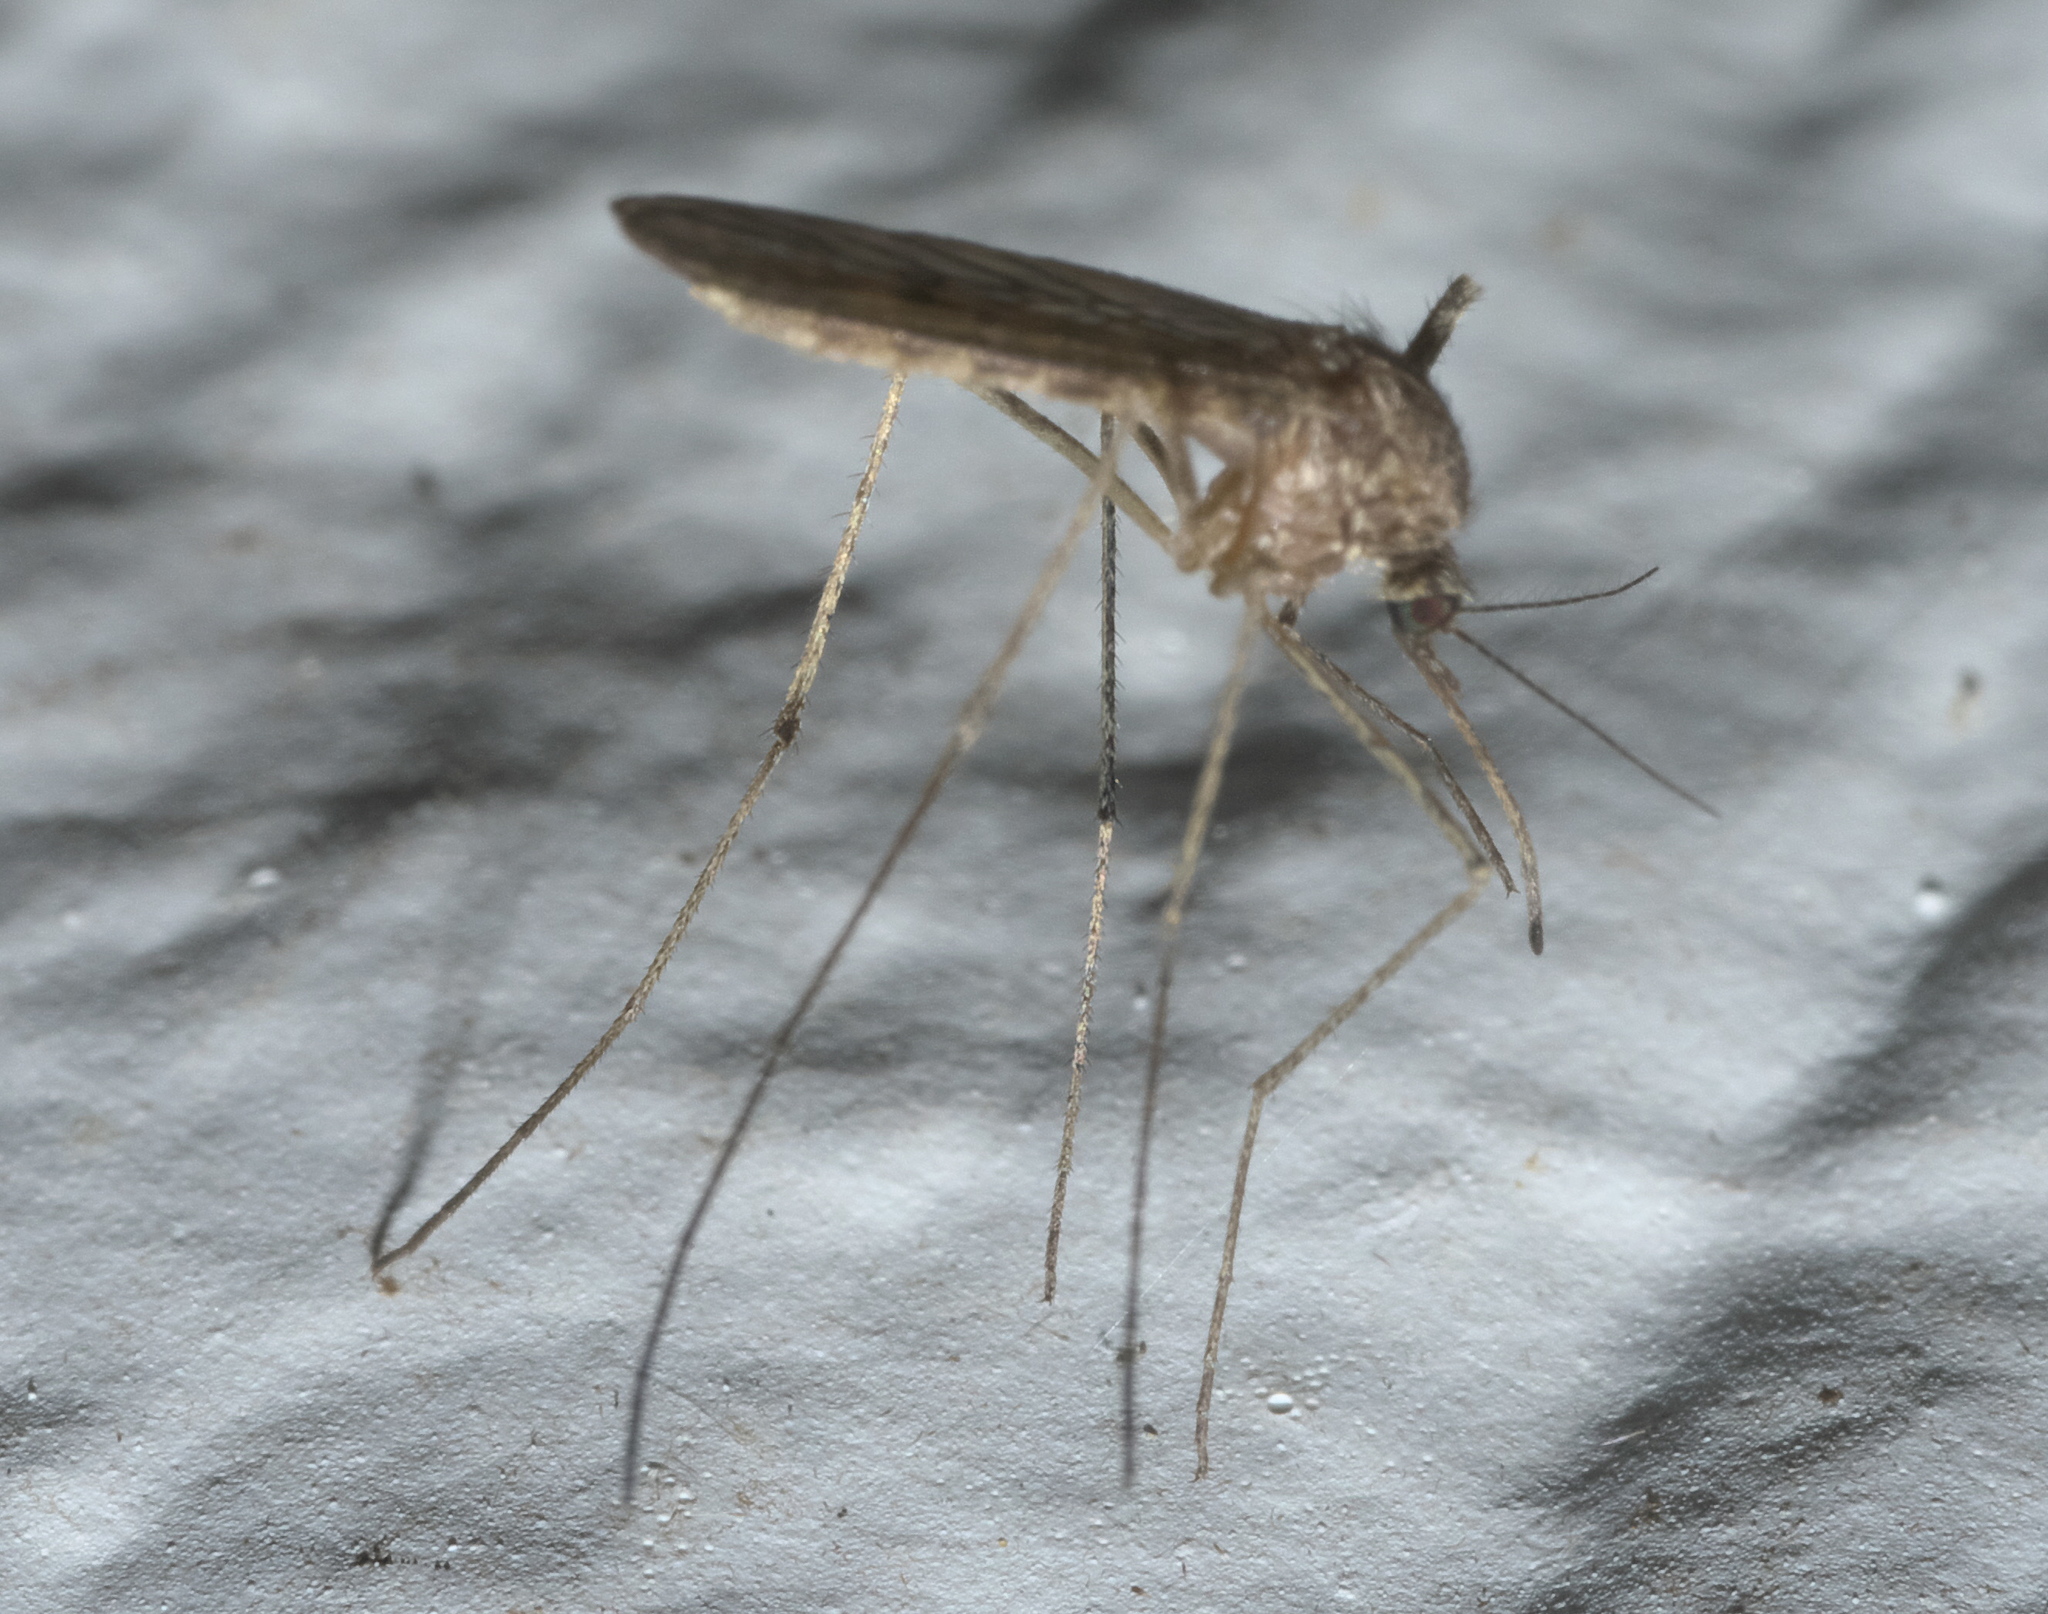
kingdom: Animalia
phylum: Arthropoda
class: Insecta
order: Diptera
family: Culicidae
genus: Culiseta
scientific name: Culiseta inornata
